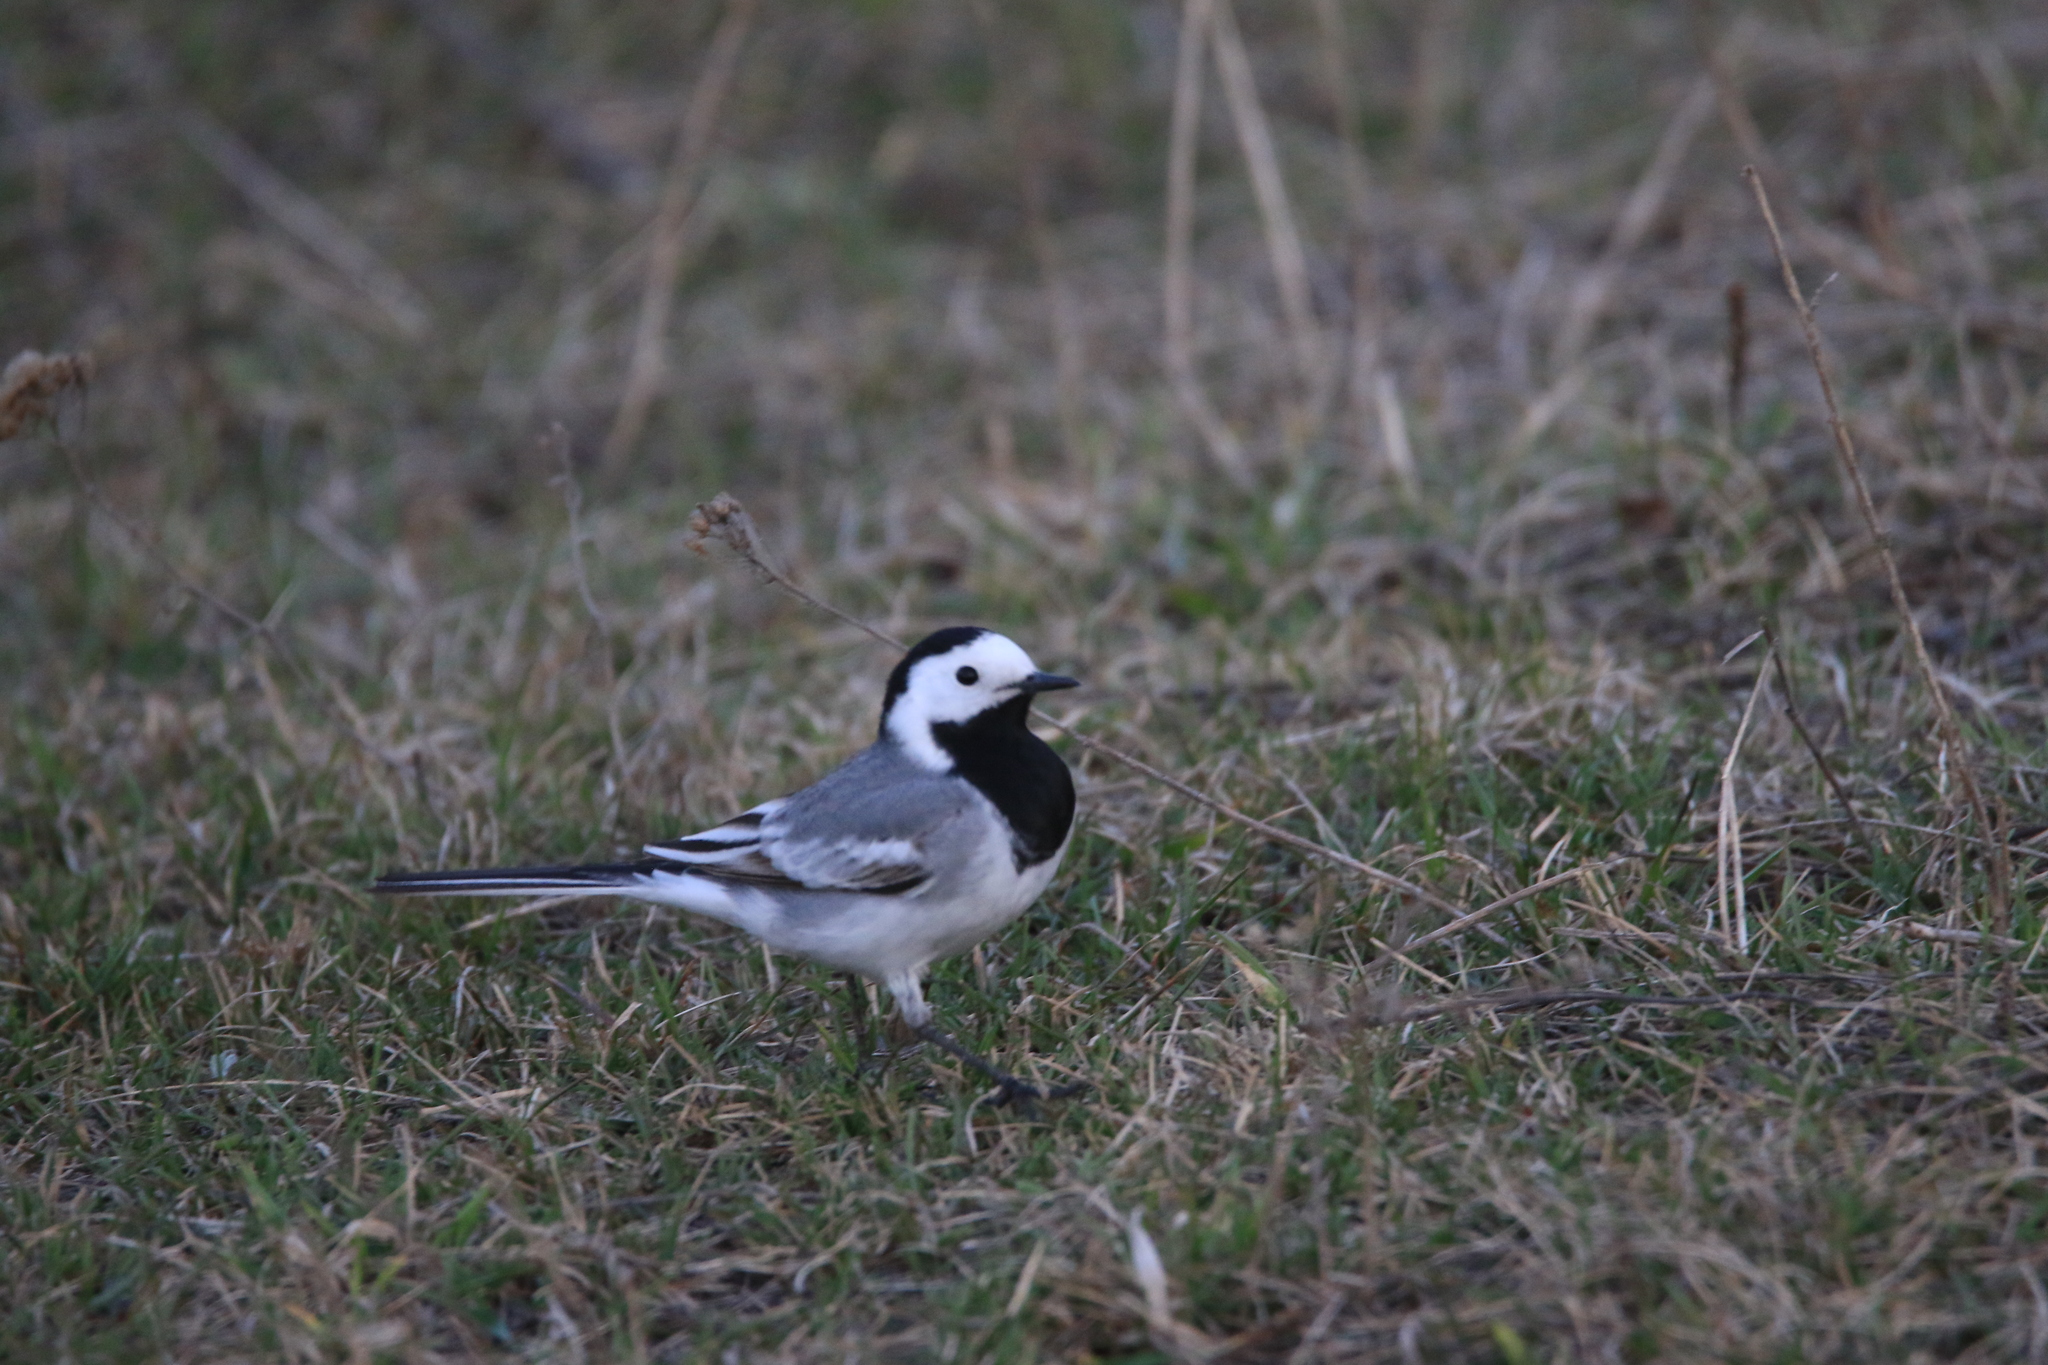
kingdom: Animalia
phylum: Chordata
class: Aves
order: Passeriformes
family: Motacillidae
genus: Motacilla
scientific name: Motacilla alba
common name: White wagtail
